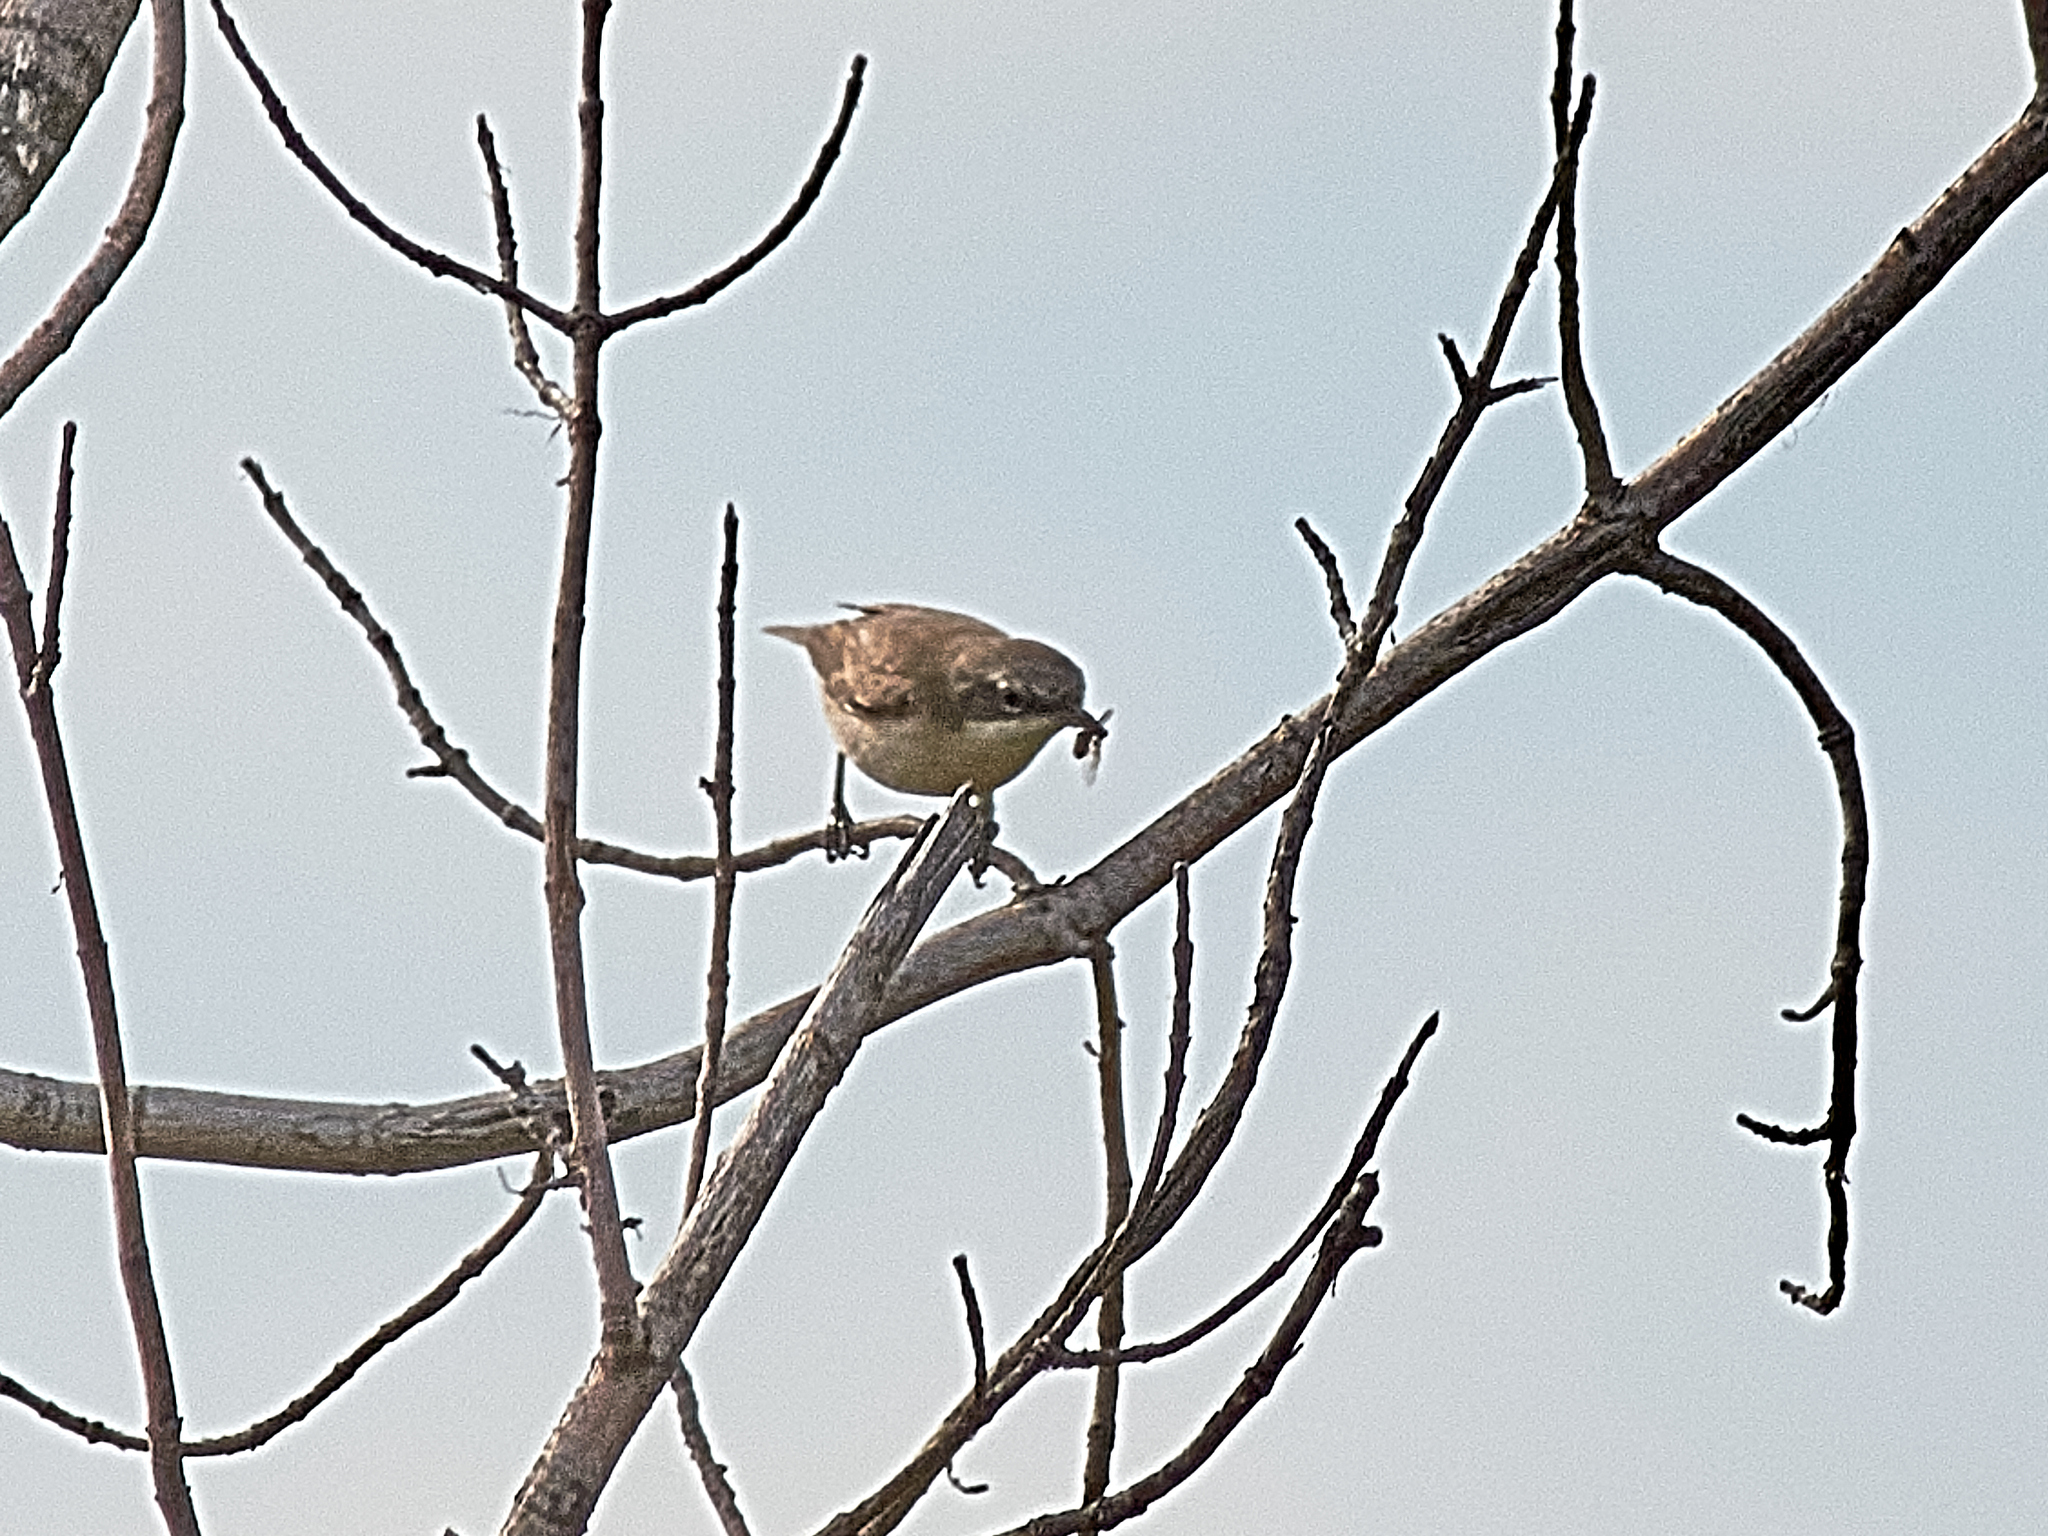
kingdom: Animalia
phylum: Chordata
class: Aves
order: Passeriformes
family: Sylviidae
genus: Sylvia
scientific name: Sylvia curruca
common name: Lesser whitethroat
